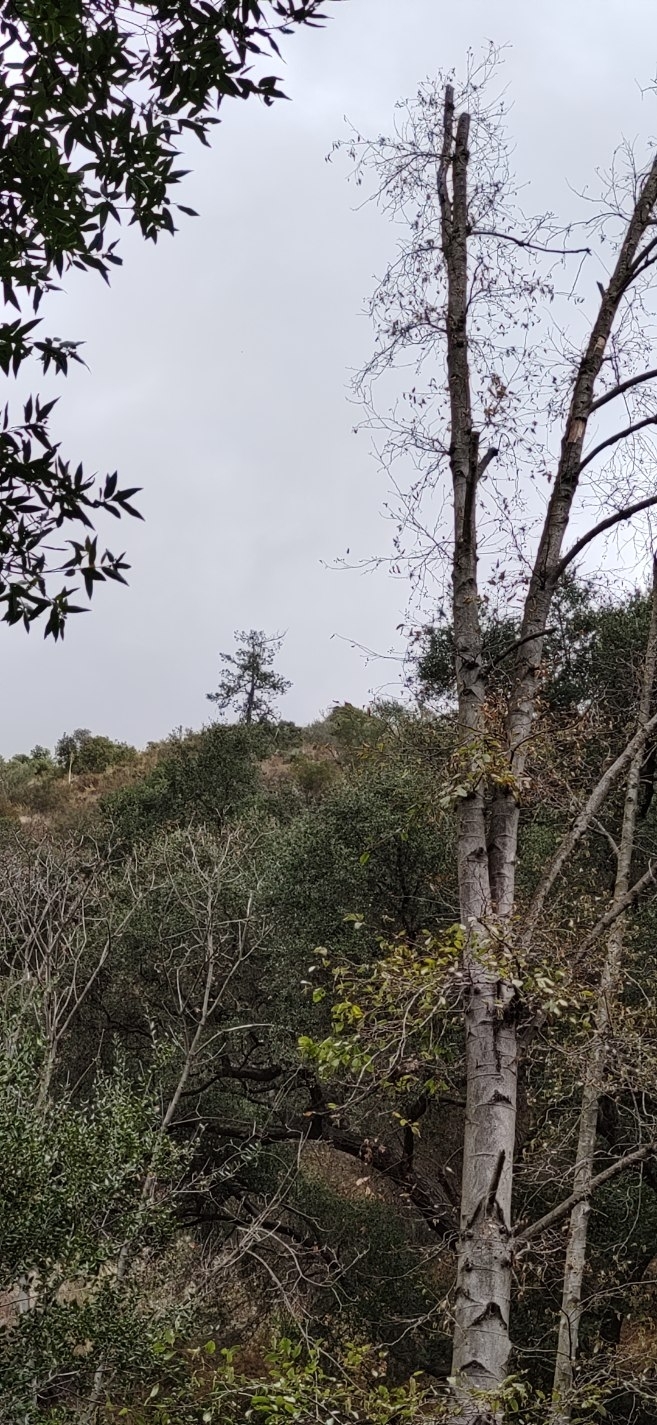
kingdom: Plantae
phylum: Tracheophyta
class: Magnoliopsida
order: Fagales
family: Betulaceae
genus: Alnus
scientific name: Alnus rhombifolia
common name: California alder
